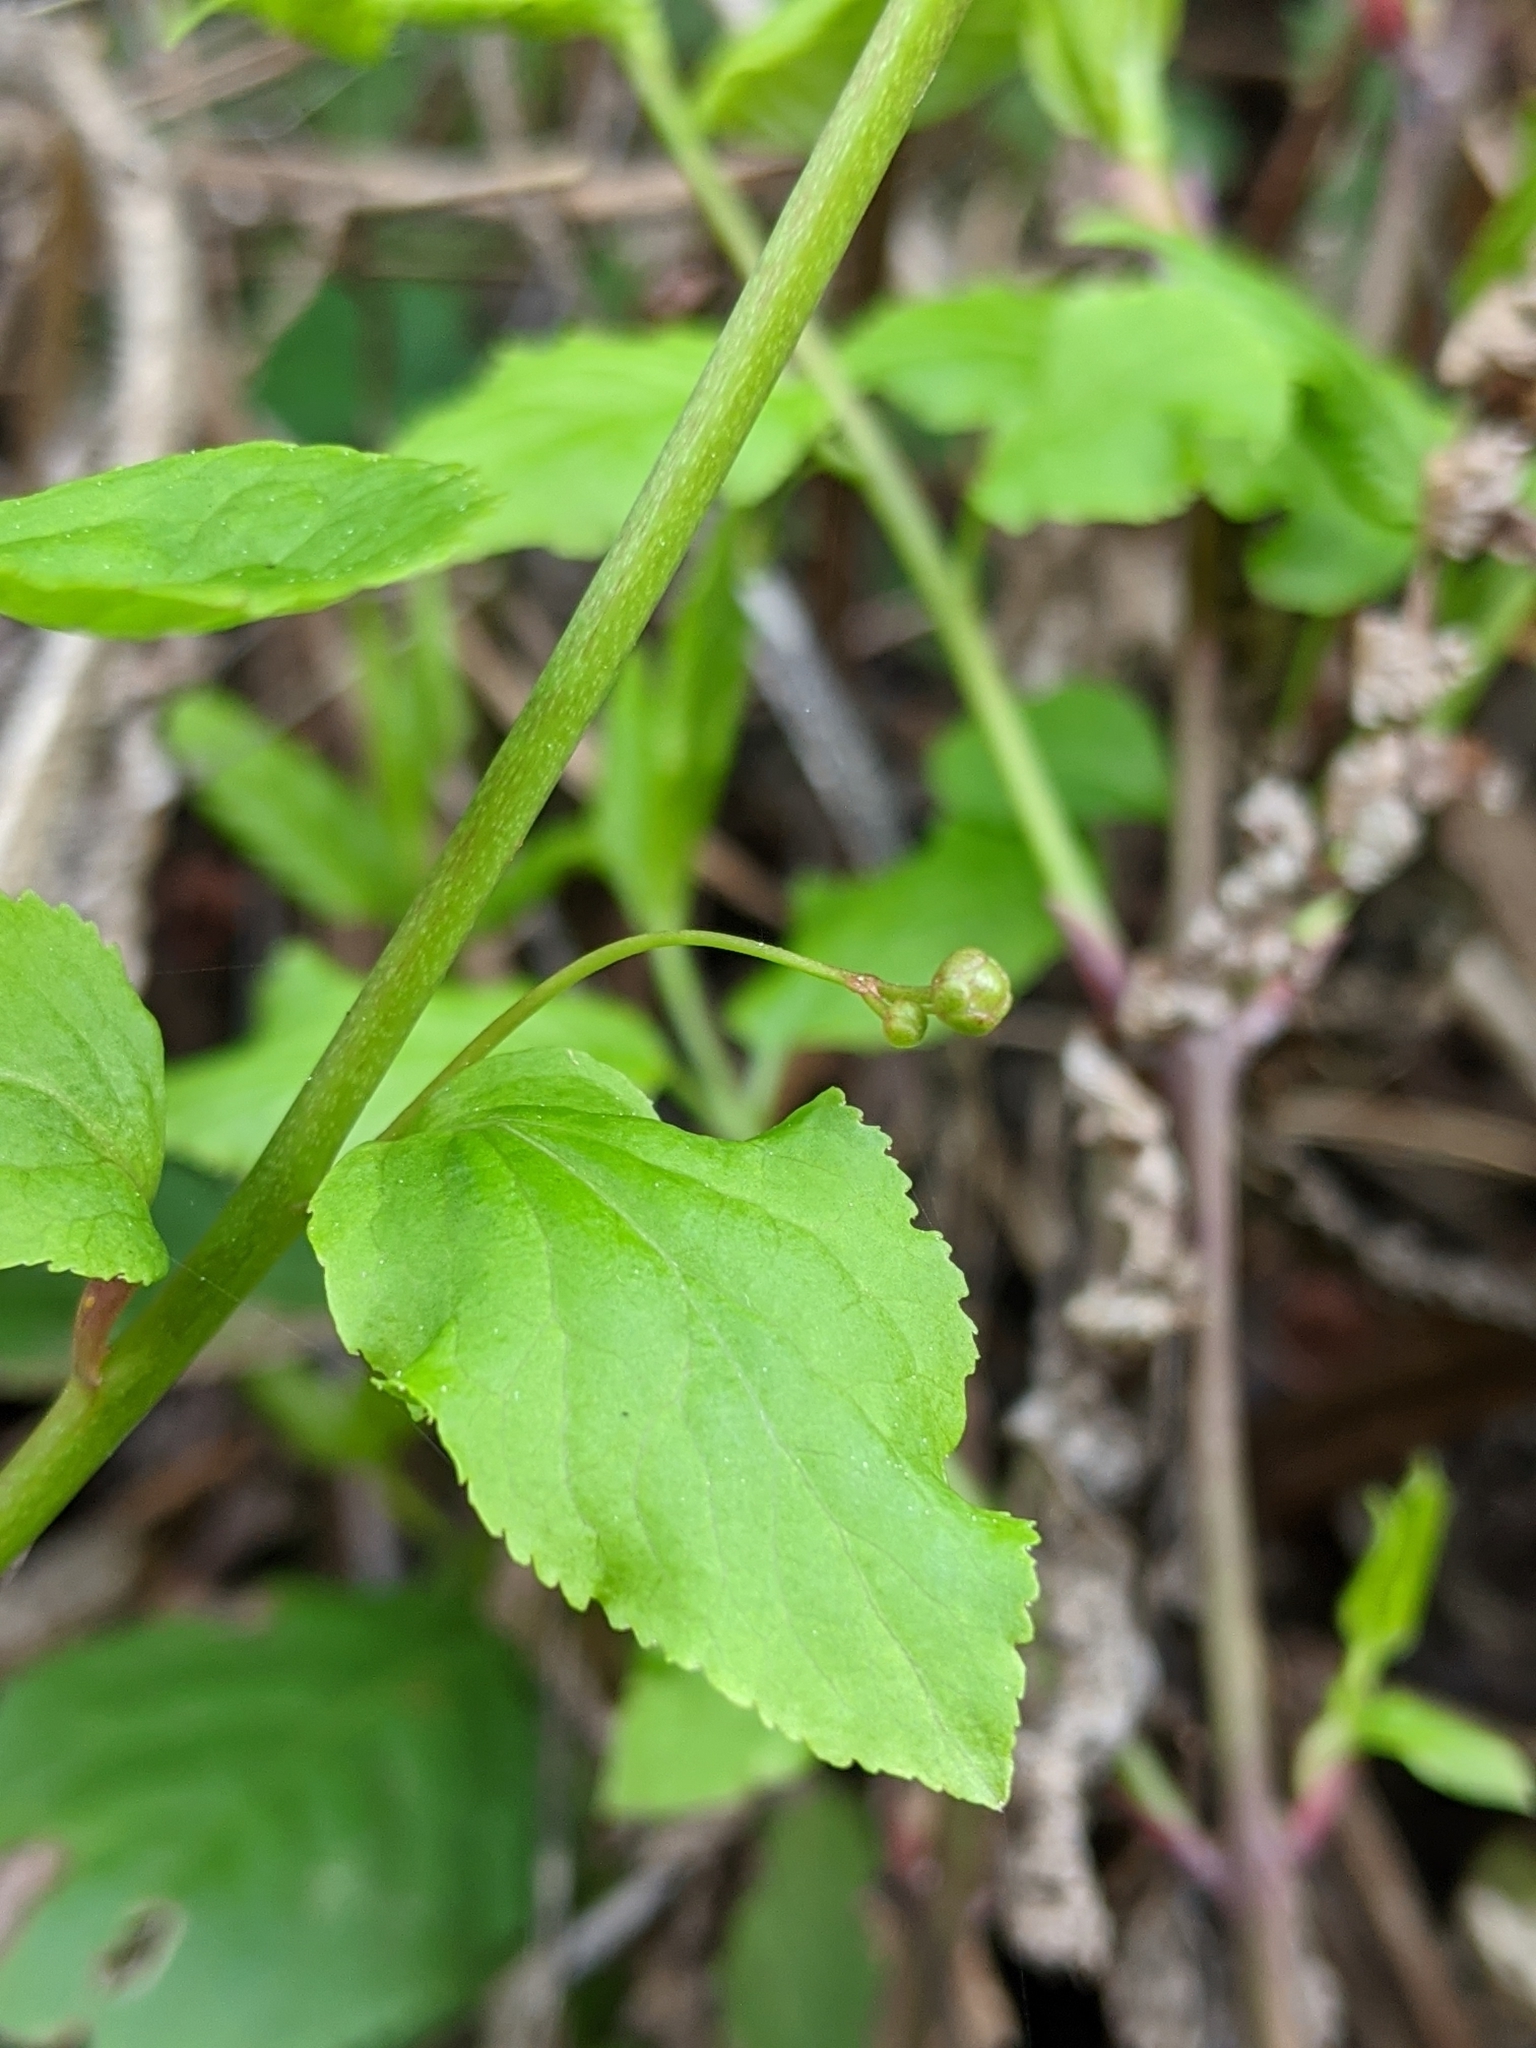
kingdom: Plantae
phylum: Tracheophyta
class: Magnoliopsida
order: Celastrales
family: Celastraceae
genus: Euonymus
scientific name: Euonymus occidentalis
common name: Western burningbush
